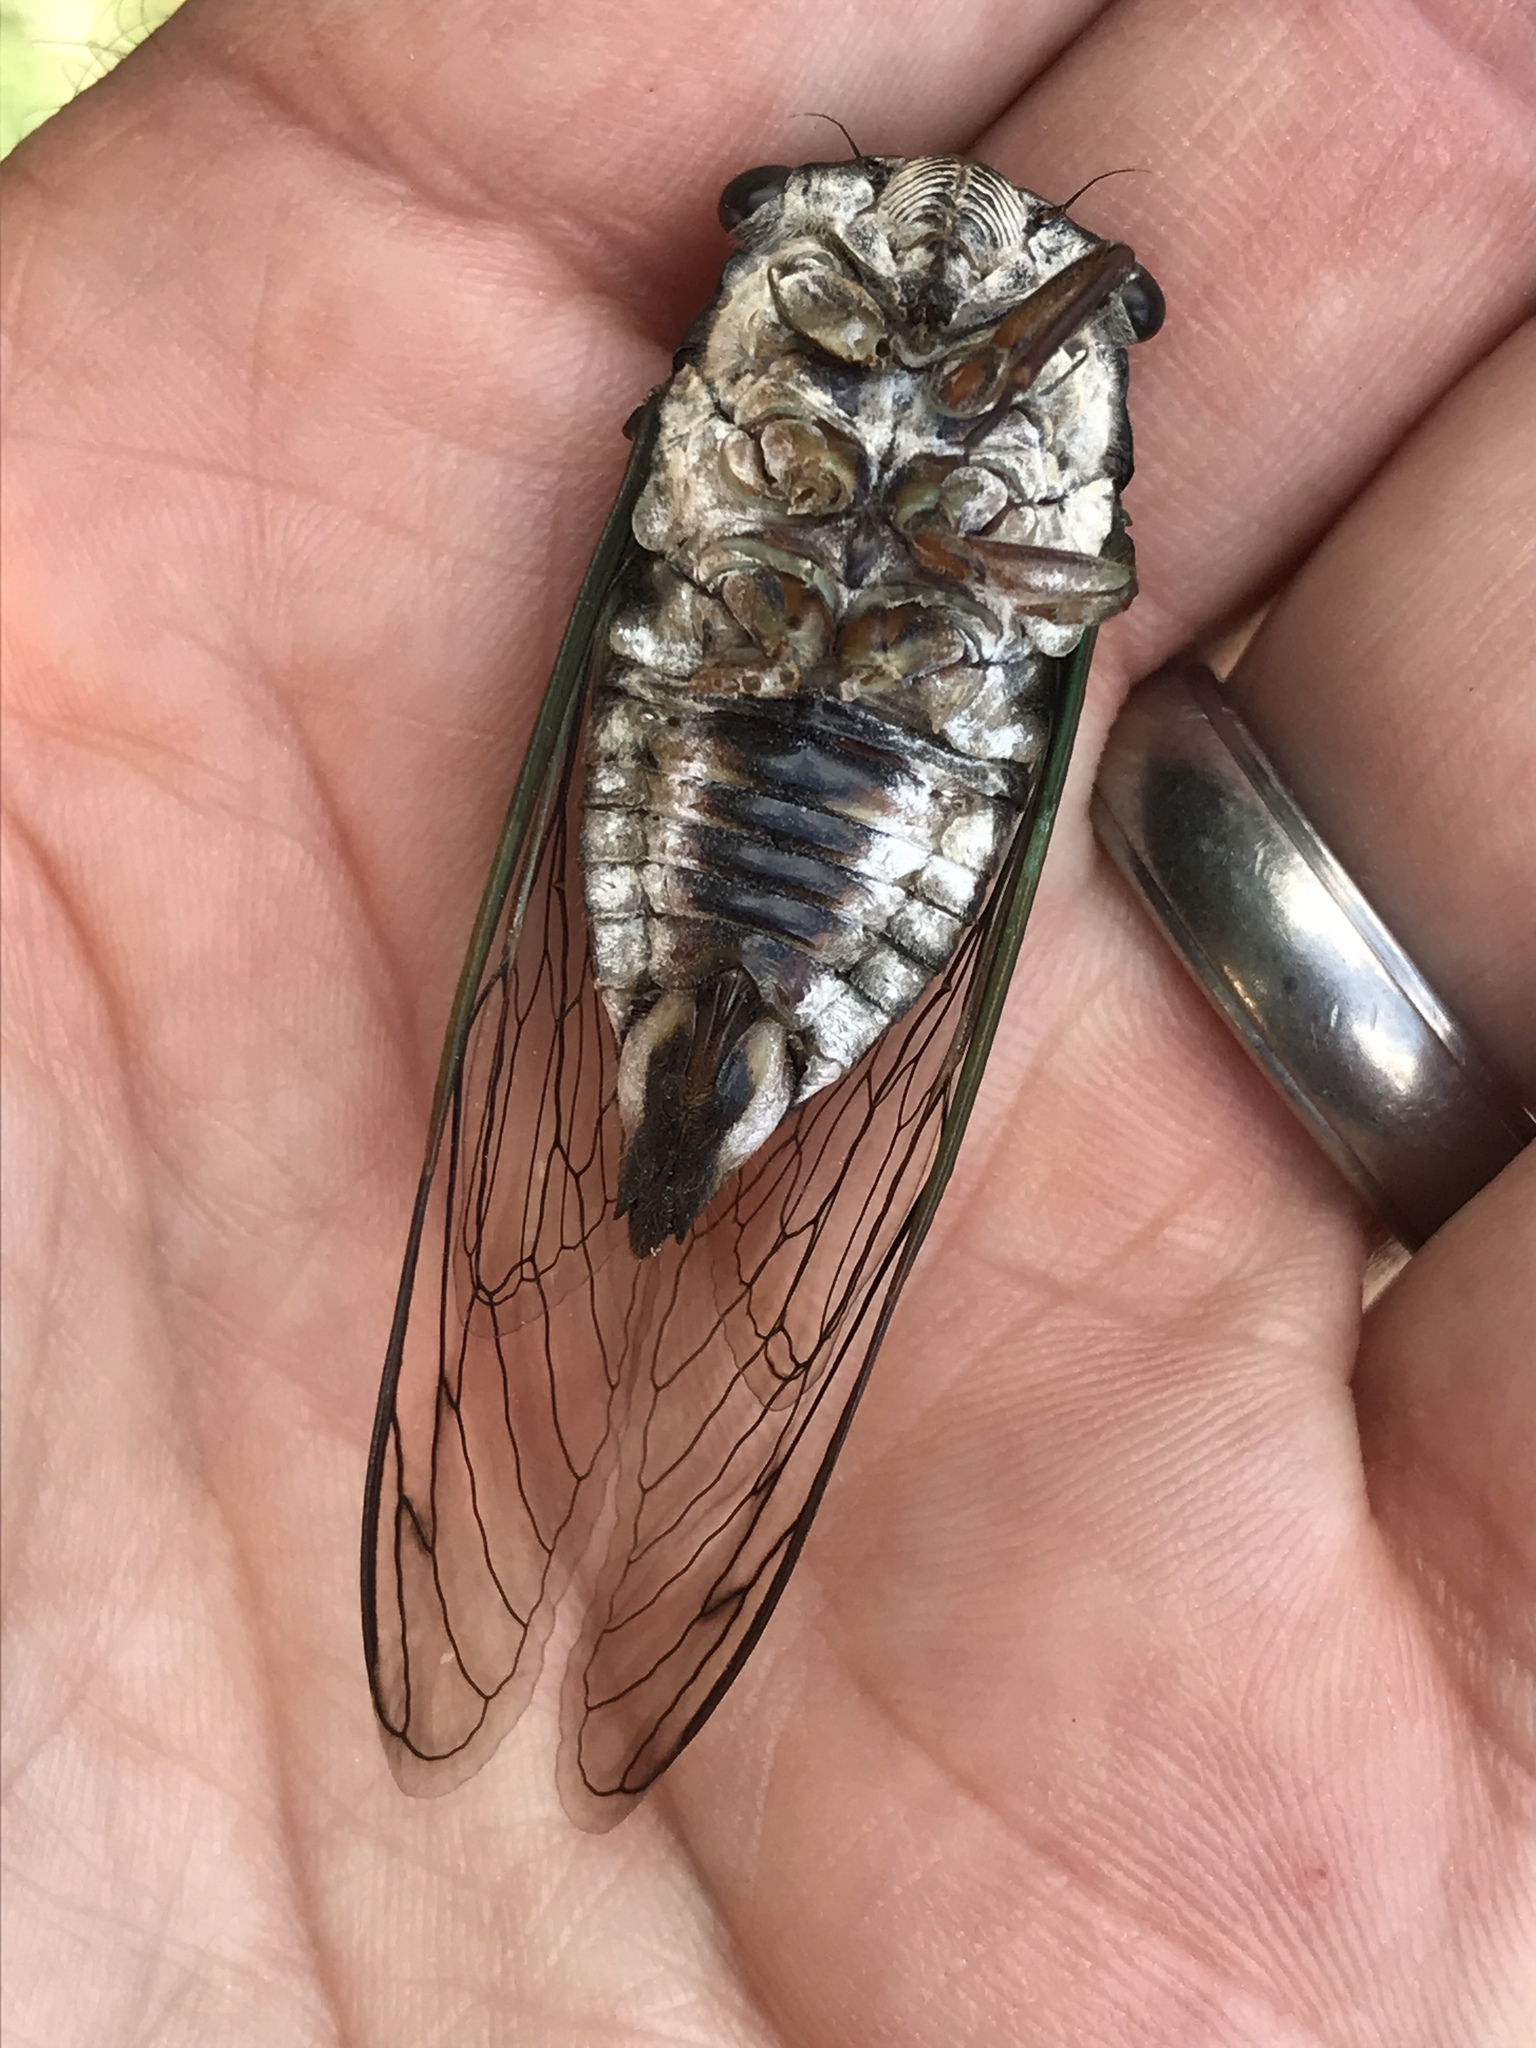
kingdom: Animalia
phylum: Arthropoda
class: Insecta
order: Hemiptera
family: Cicadidae
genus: Neotibicen
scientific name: Neotibicen lyricen
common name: Lyric cicada
